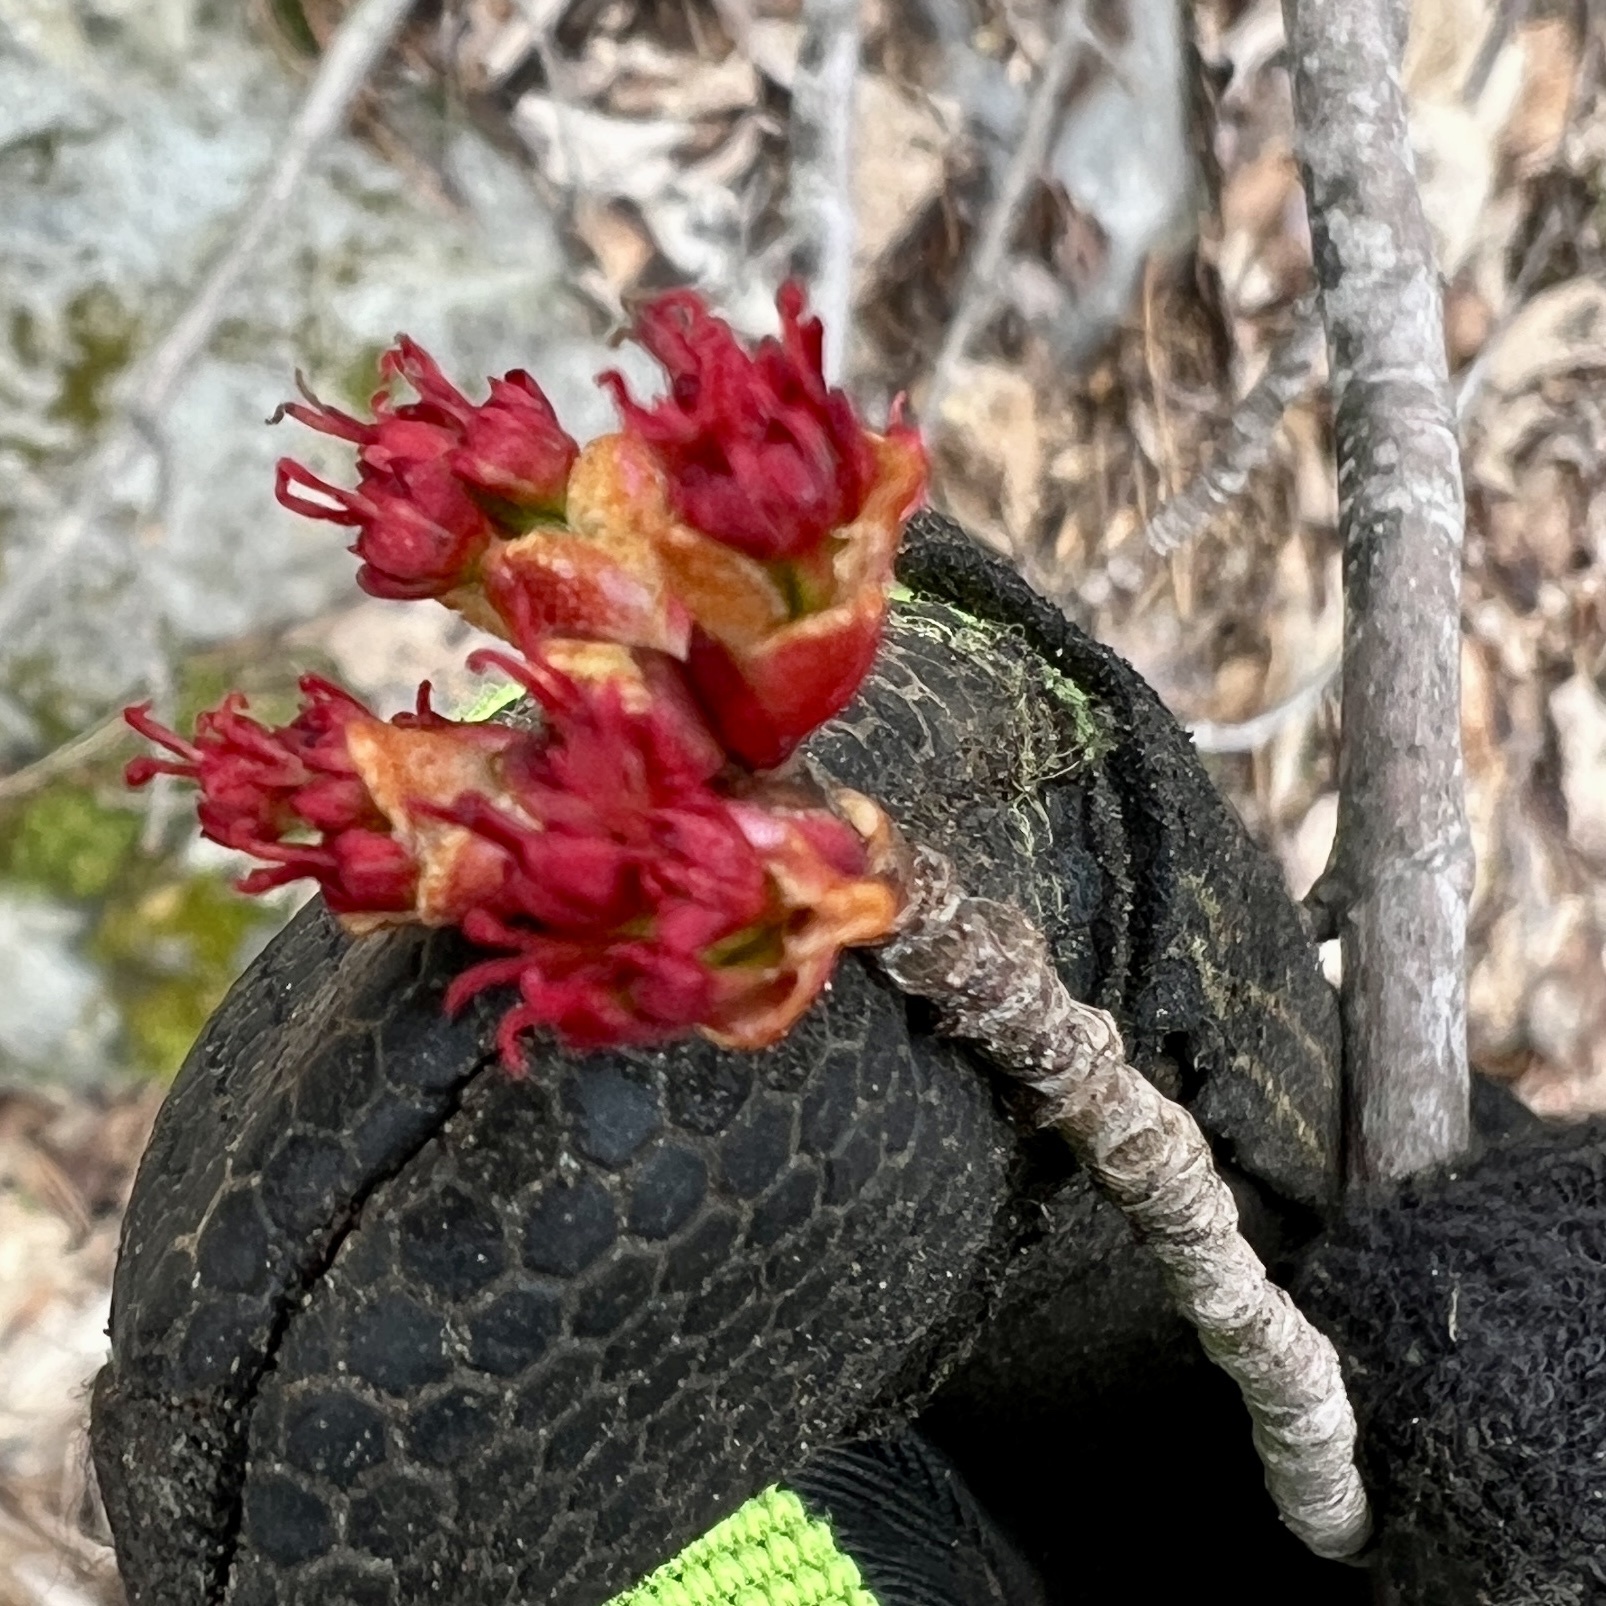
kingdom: Plantae
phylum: Tracheophyta
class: Magnoliopsida
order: Sapindales
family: Sapindaceae
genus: Acer
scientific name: Acer rubrum
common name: Red maple
